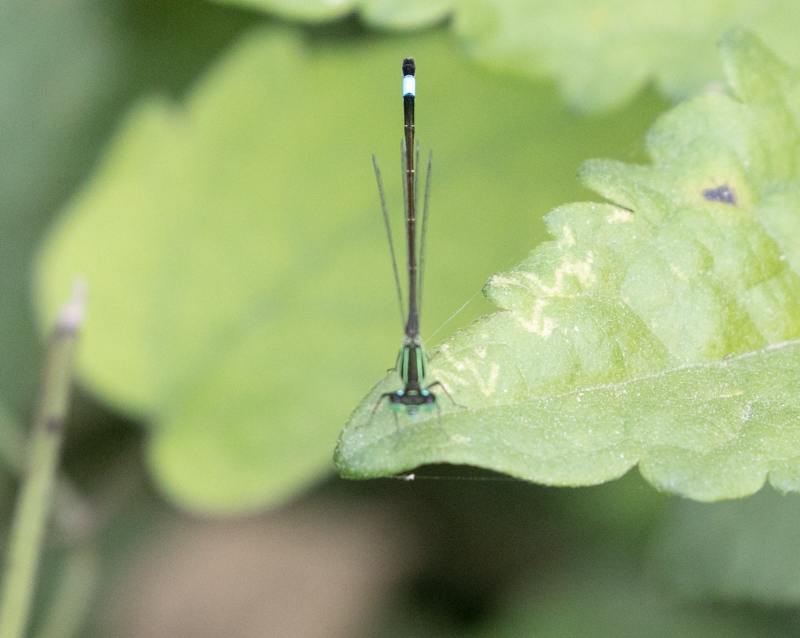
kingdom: Animalia
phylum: Arthropoda
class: Insecta
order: Odonata
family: Coenagrionidae
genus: Ischnura
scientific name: Ischnura elegans
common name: Blue-tailed damselfly
